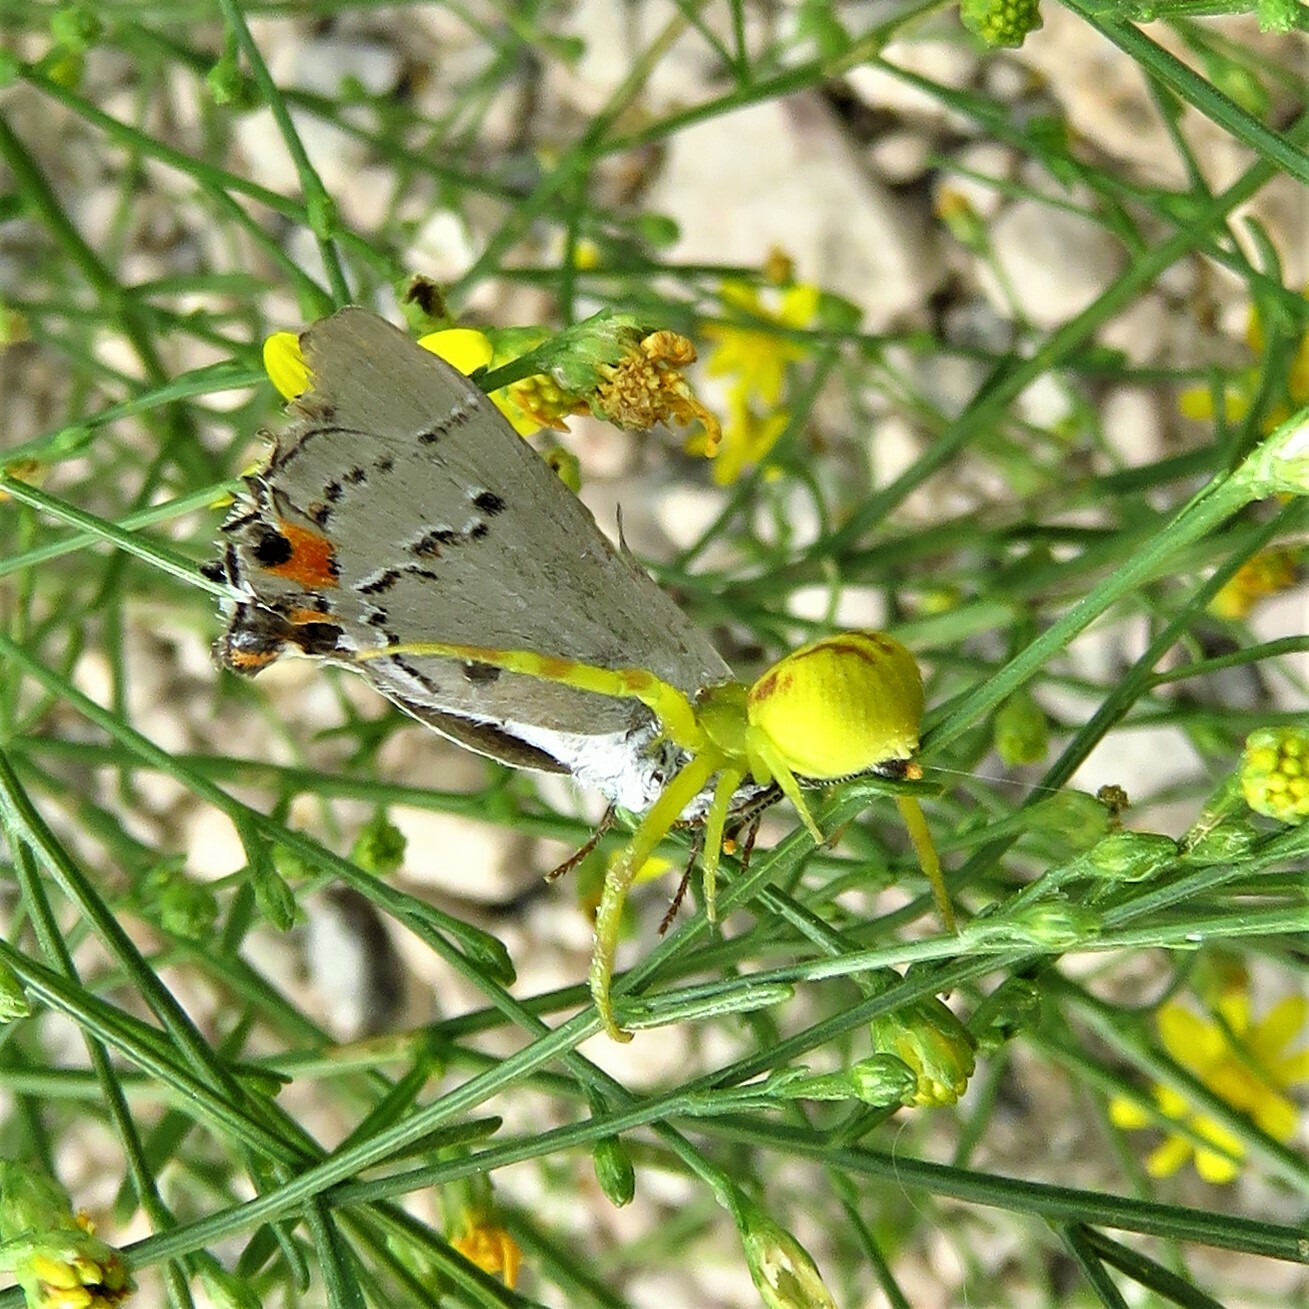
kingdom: Animalia
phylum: Arthropoda
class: Insecta
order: Lepidoptera
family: Lycaenidae
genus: Strymon
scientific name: Strymon melinus
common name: Gray hairstreak
